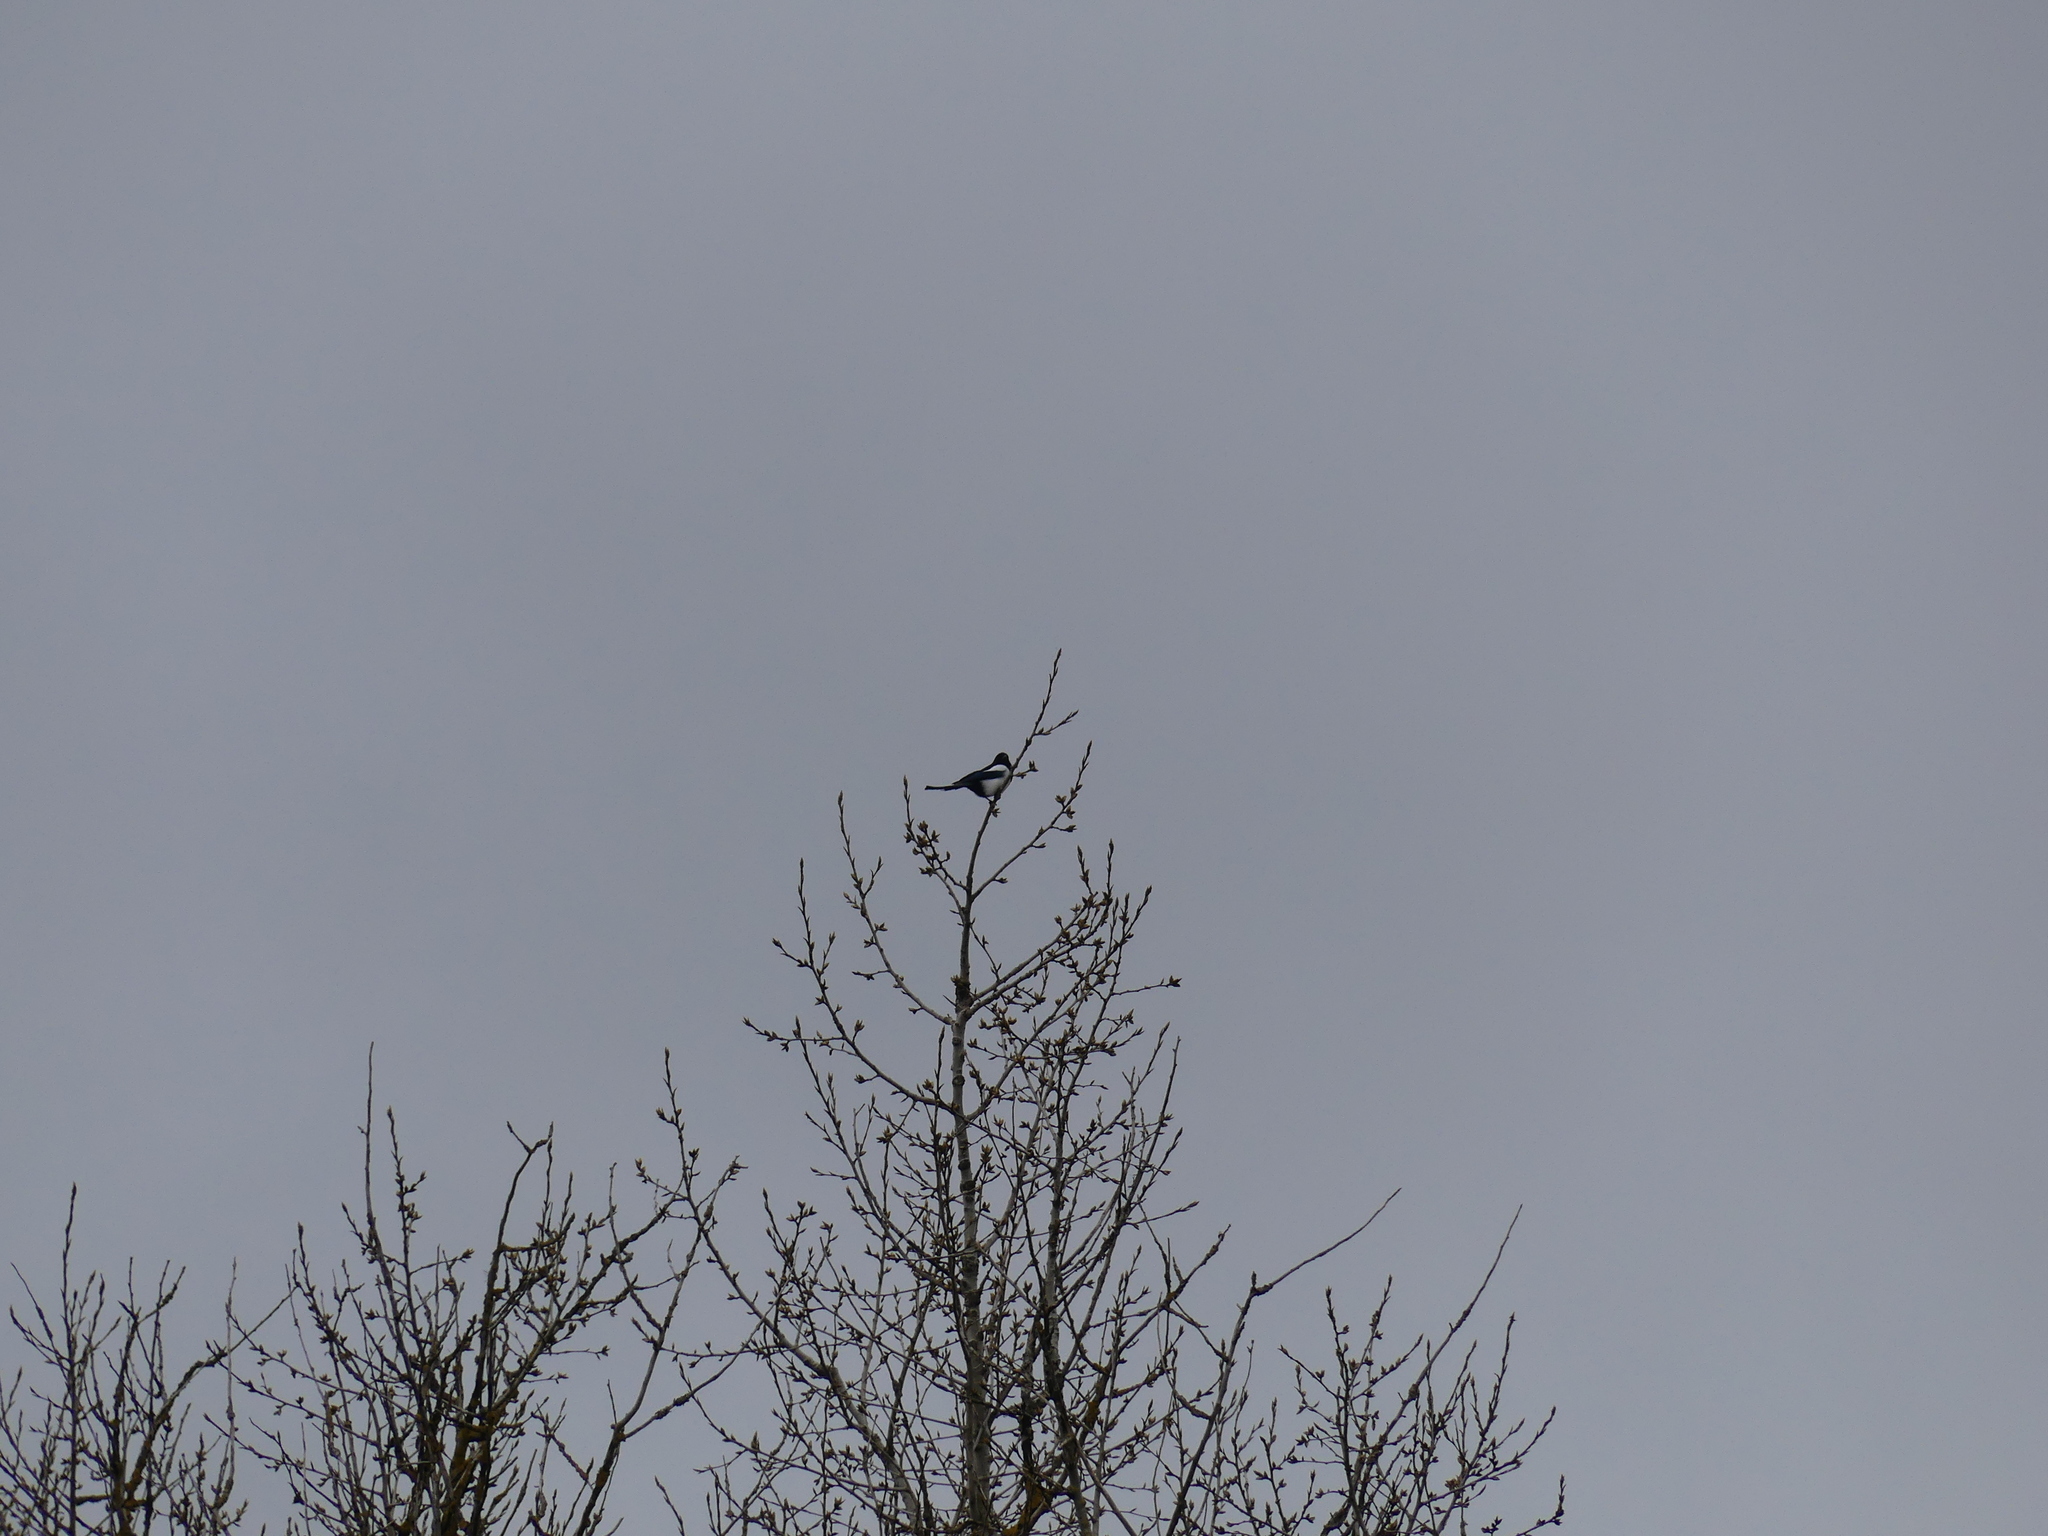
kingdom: Animalia
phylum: Chordata
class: Aves
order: Passeriformes
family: Corvidae
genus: Pica
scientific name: Pica pica
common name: Eurasian magpie
